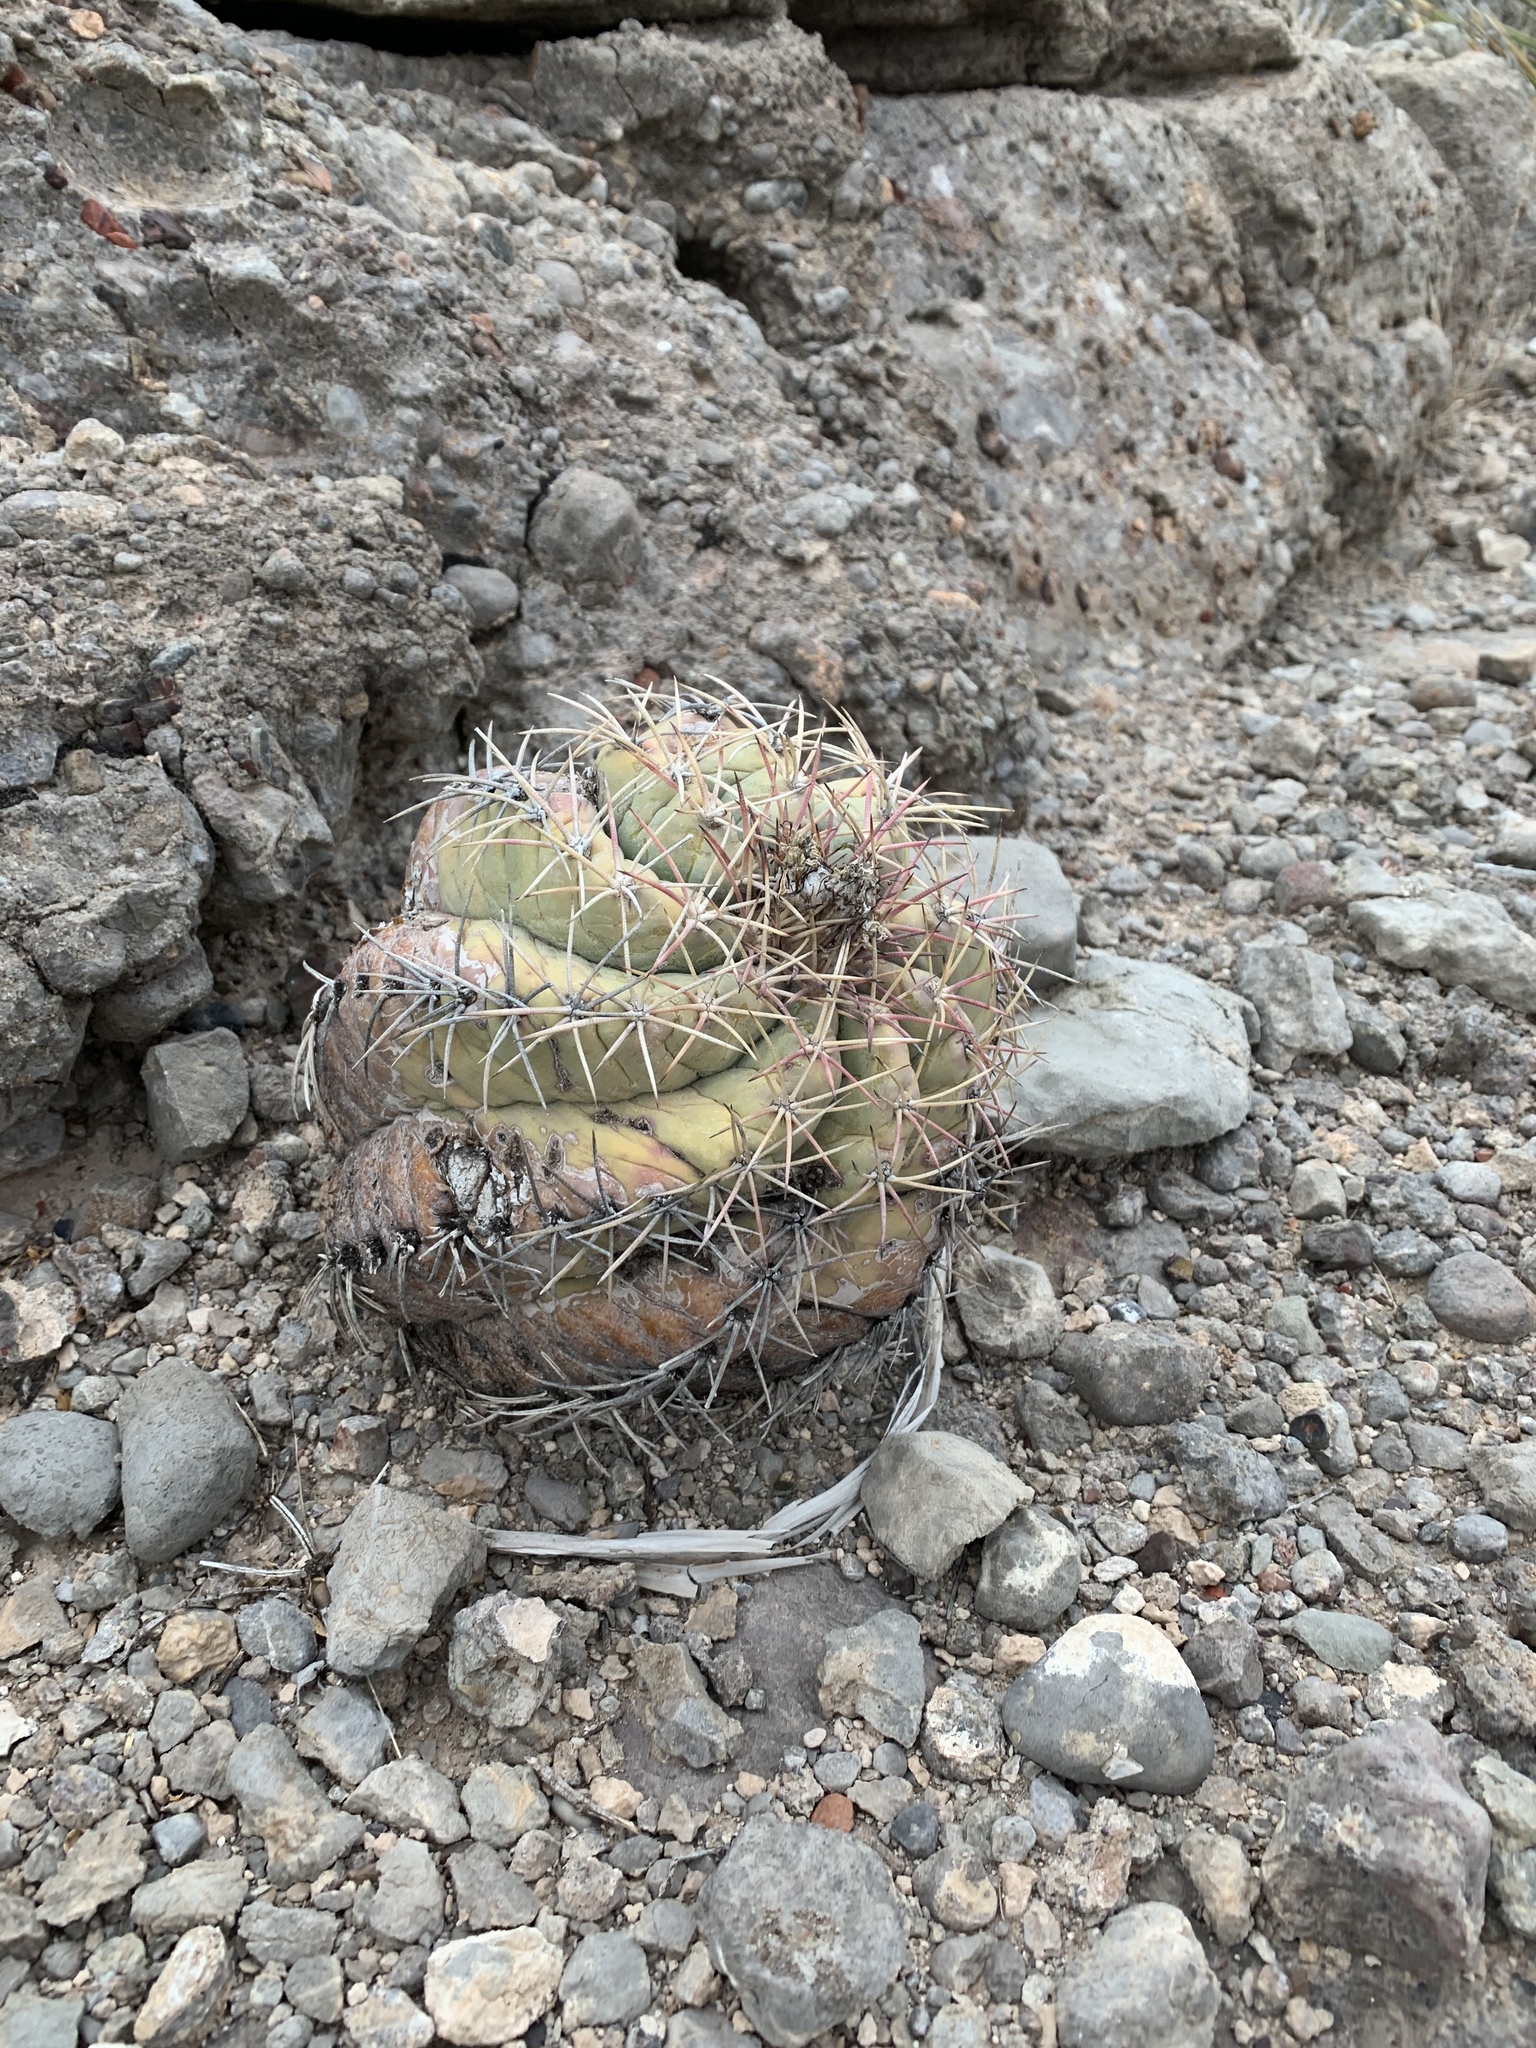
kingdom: Plantae
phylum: Tracheophyta
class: Magnoliopsida
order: Caryophyllales
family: Cactaceae
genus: Echinocactus
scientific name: Echinocactus horizonthalonius
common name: Devilshead
